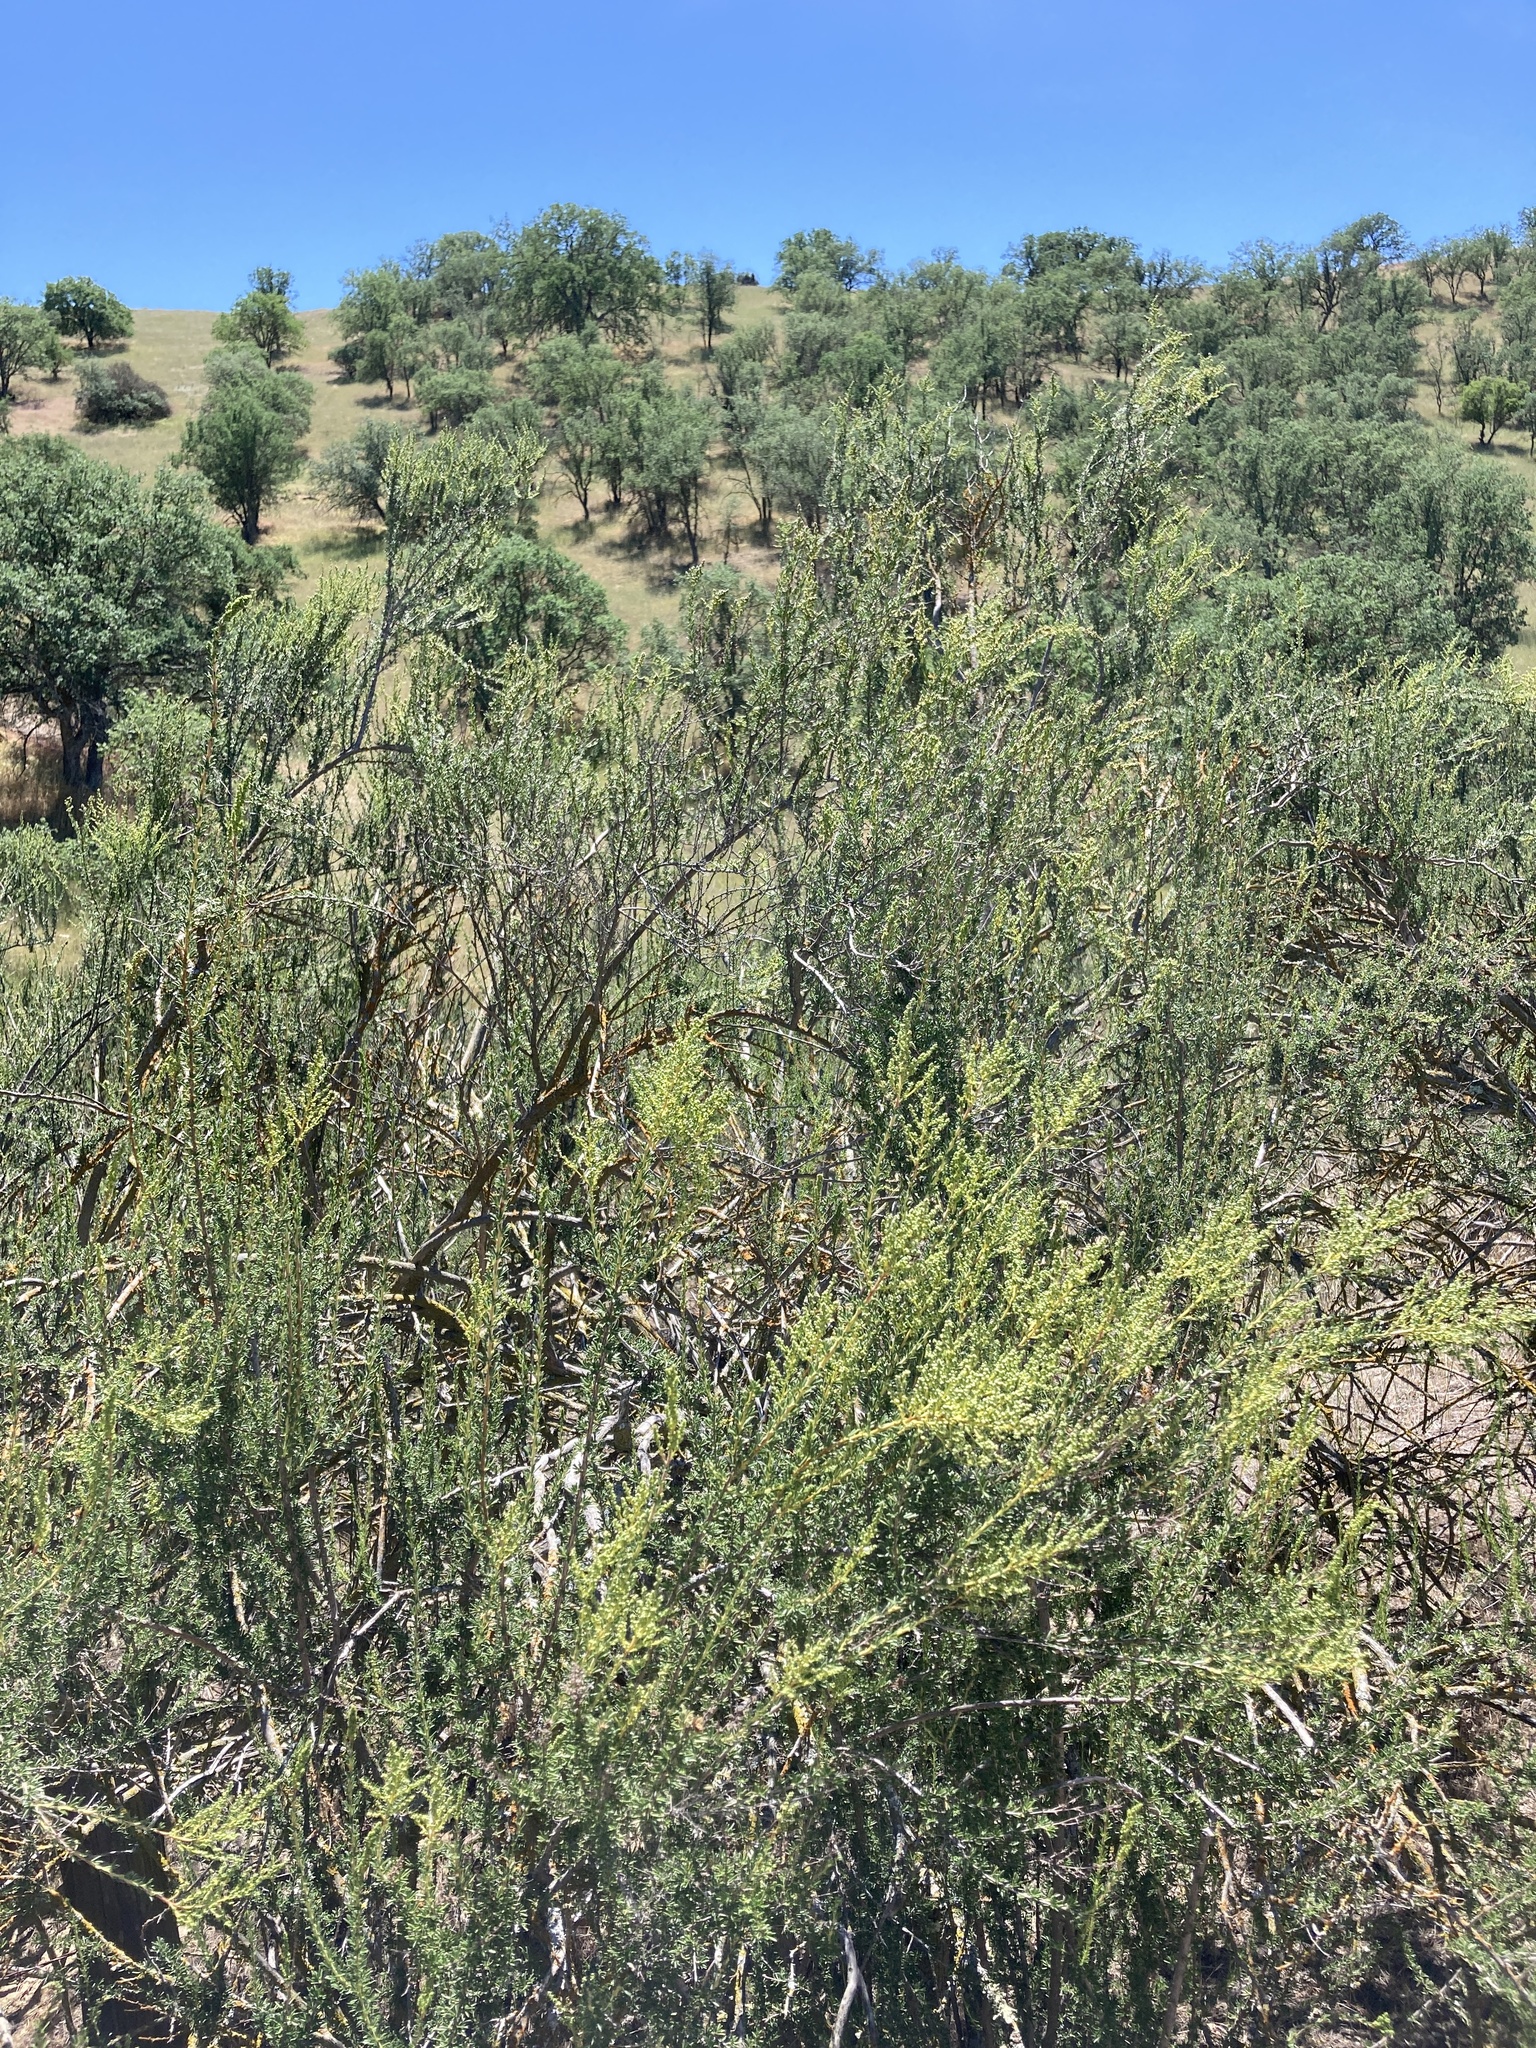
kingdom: Plantae
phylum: Tracheophyta
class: Magnoliopsida
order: Rosales
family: Rosaceae
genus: Adenostoma
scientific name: Adenostoma fasciculatum
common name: Chamise
